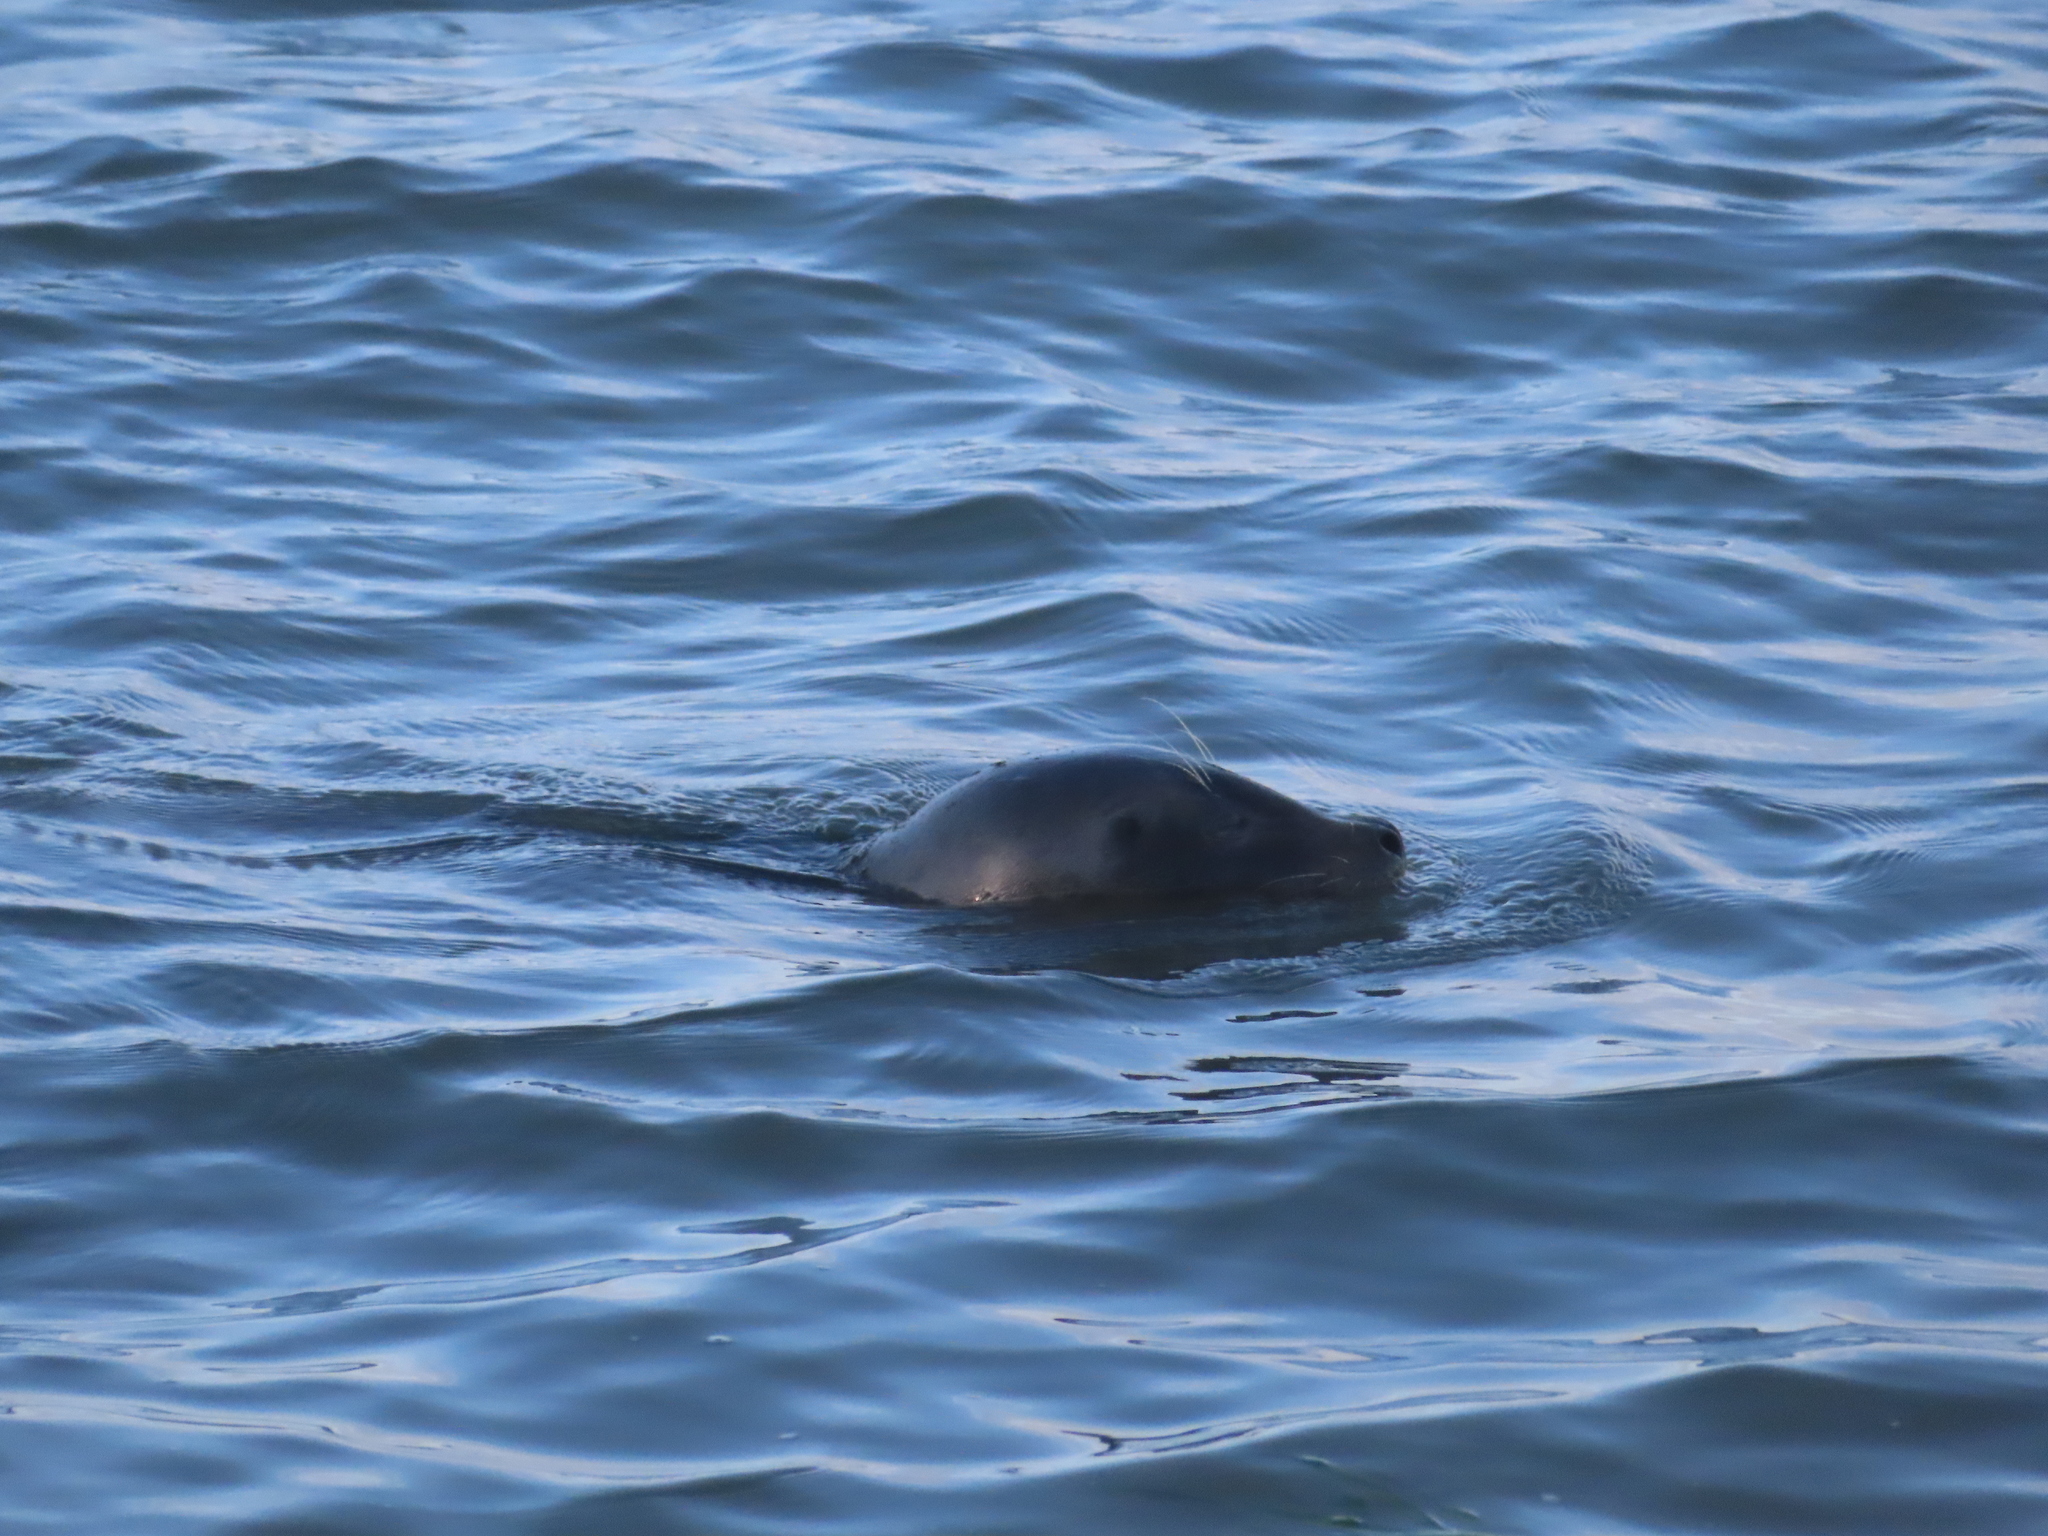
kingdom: Animalia
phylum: Chordata
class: Mammalia
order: Carnivora
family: Phocidae
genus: Phoca
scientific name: Phoca vitulina
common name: Harbor seal
